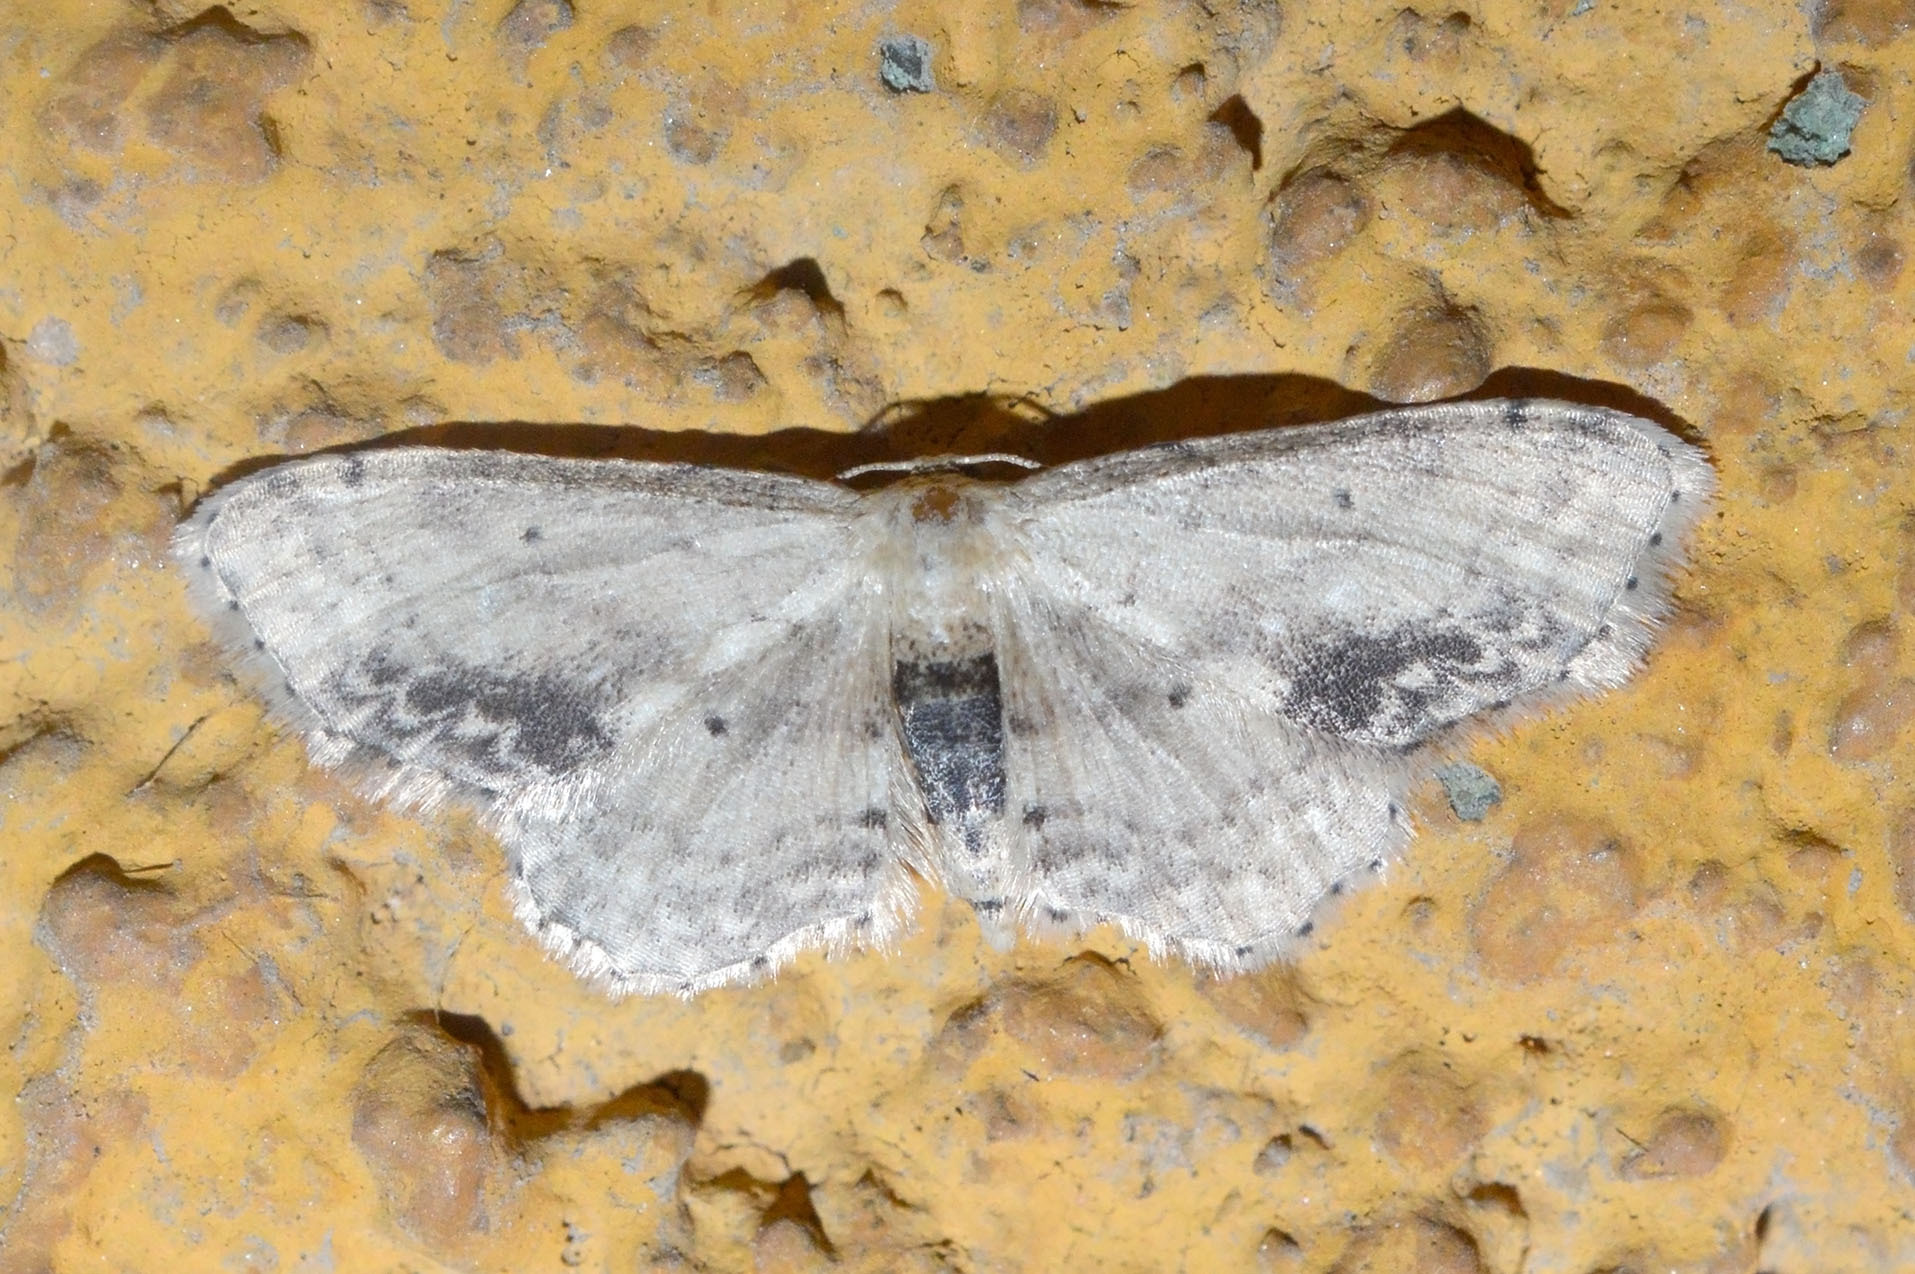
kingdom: Animalia
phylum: Arthropoda
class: Insecta
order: Lepidoptera
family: Geometridae
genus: Idaea
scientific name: Idaea dimidiata
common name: Single-dotted wave
